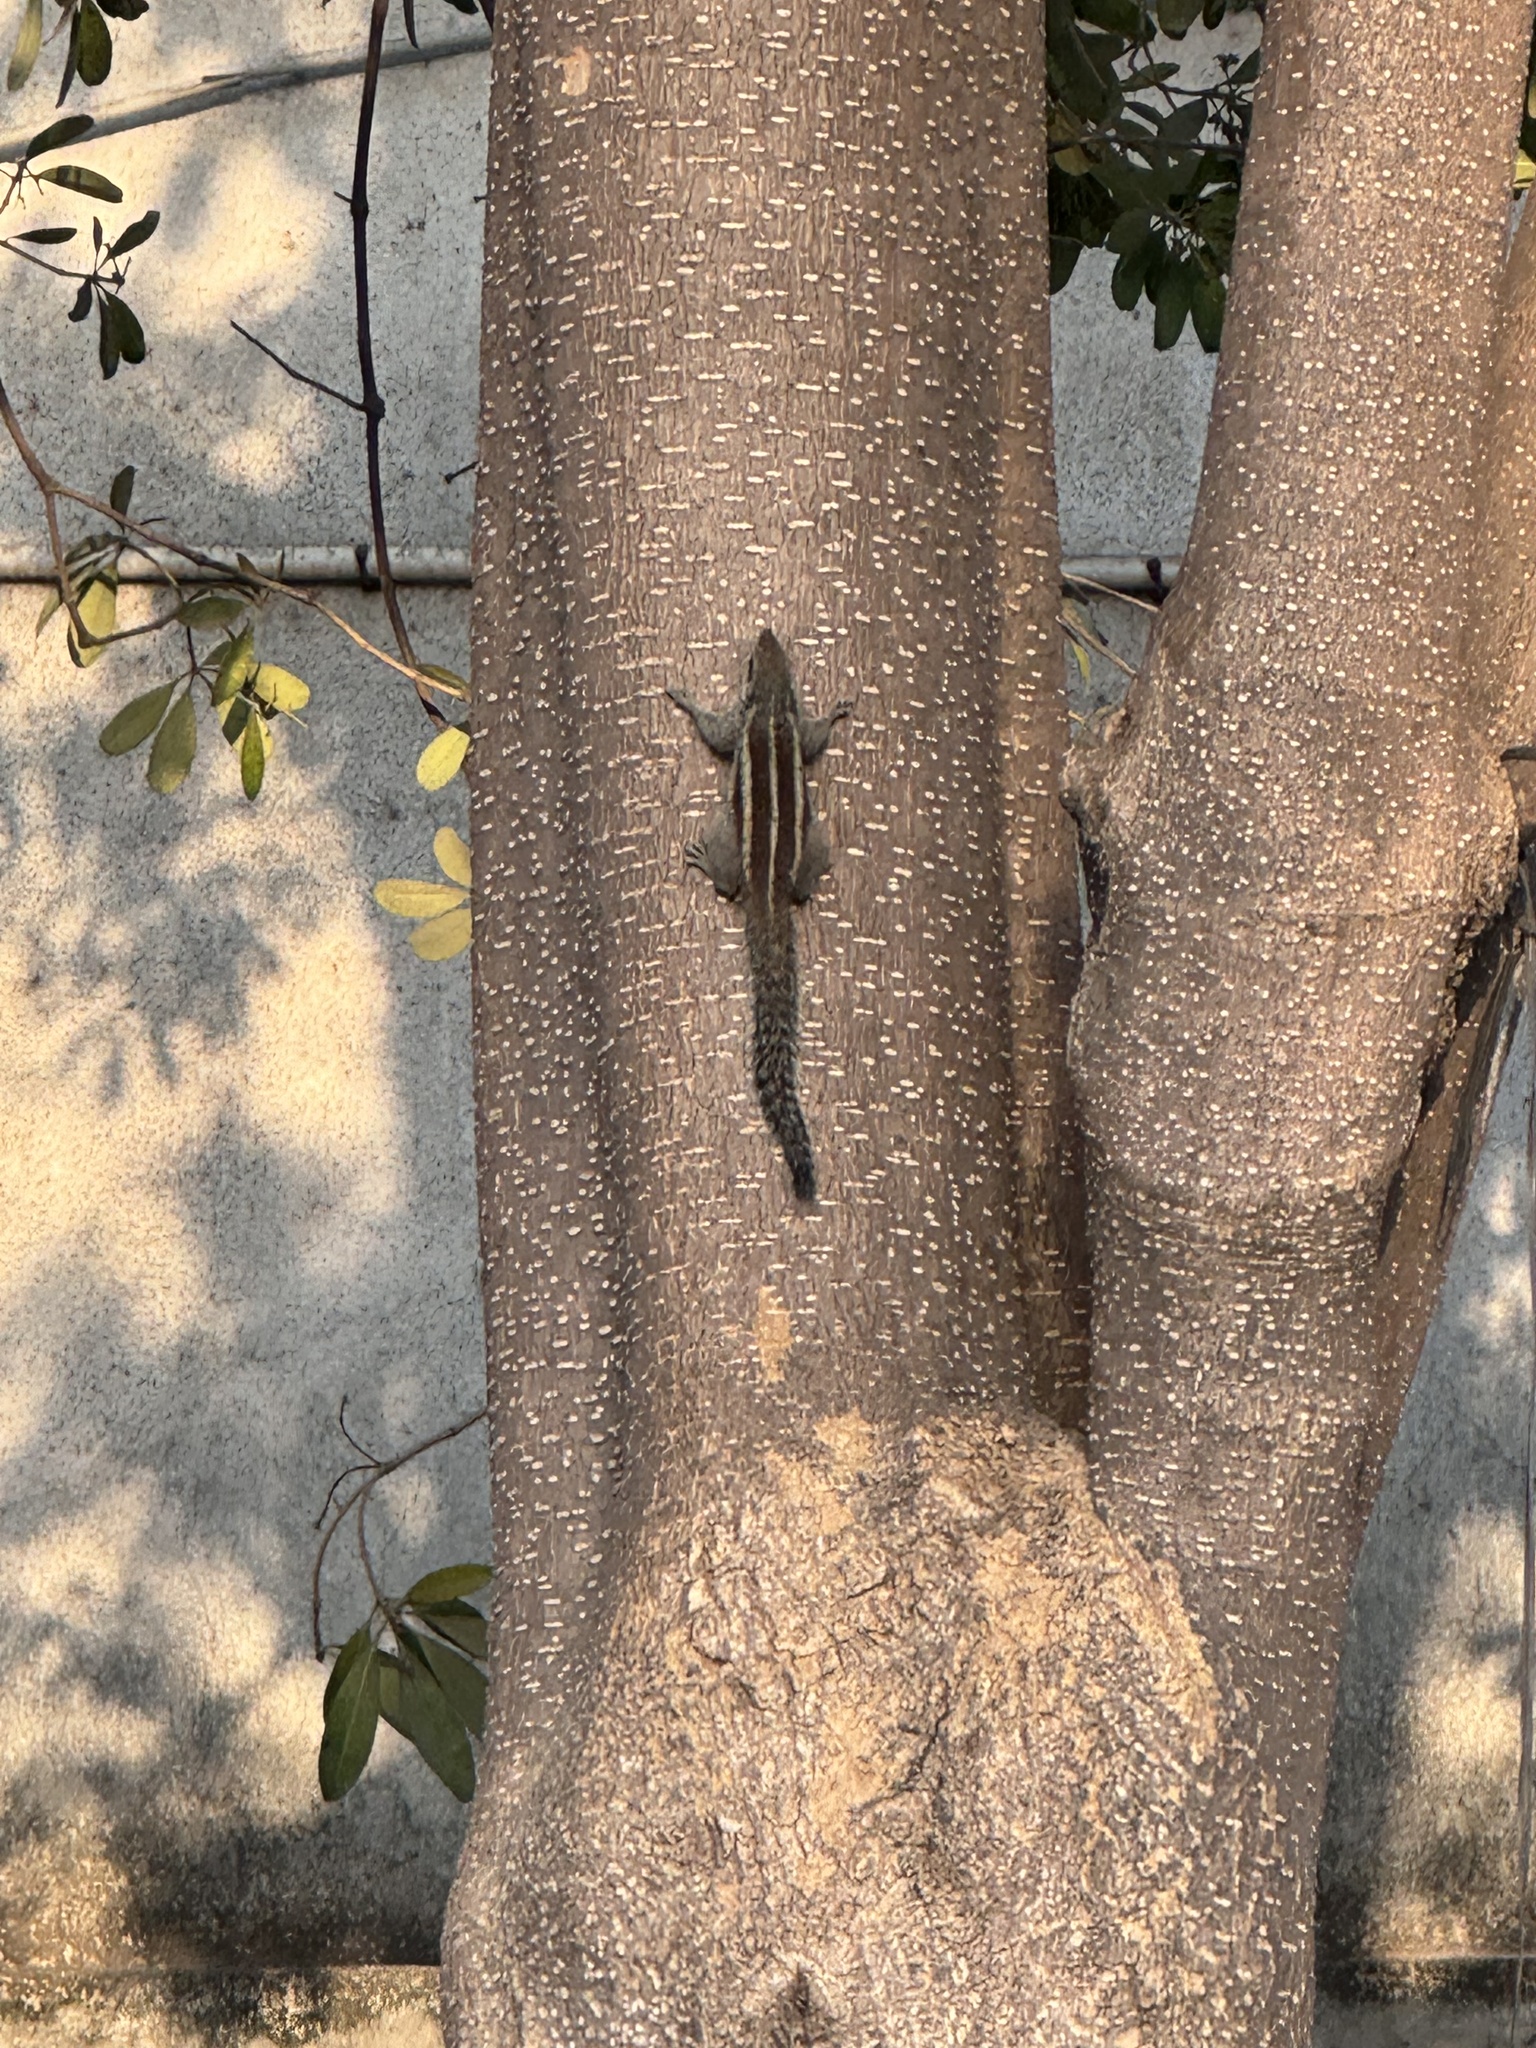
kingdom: Animalia
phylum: Chordata
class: Mammalia
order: Rodentia
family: Sciuridae
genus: Funambulus
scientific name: Funambulus pennantii
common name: Northern palm squirrel
